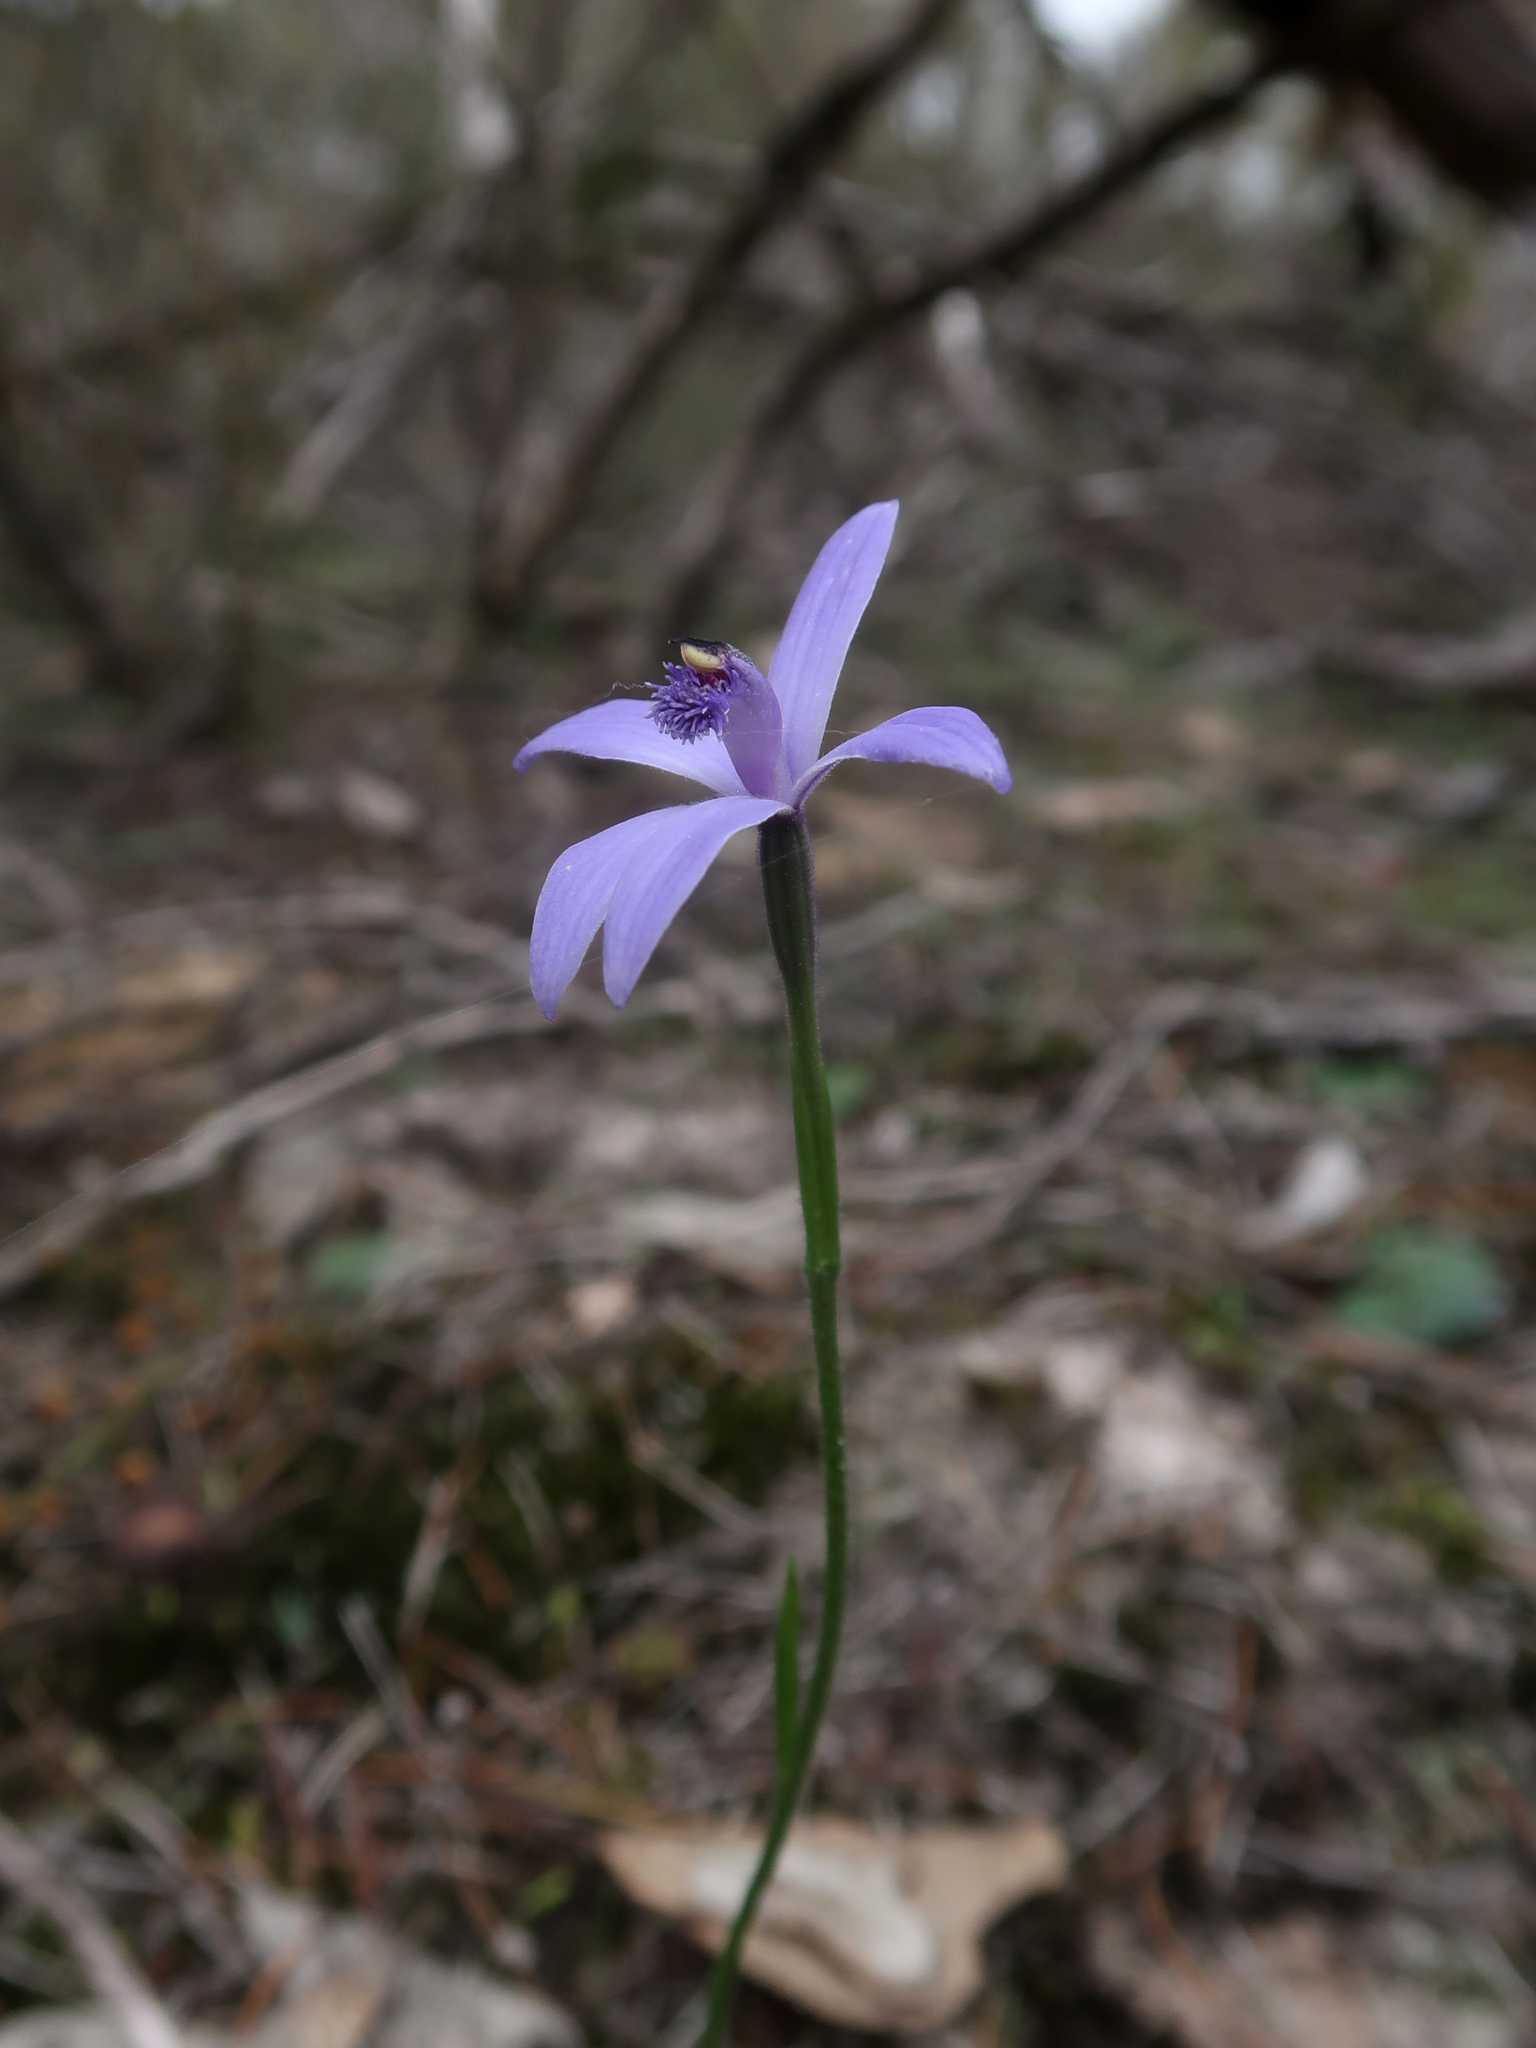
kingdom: Plantae
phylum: Tracheophyta
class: Liliopsida
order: Asparagales
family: Orchidaceae
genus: Pheladenia
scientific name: Pheladenia deformis
